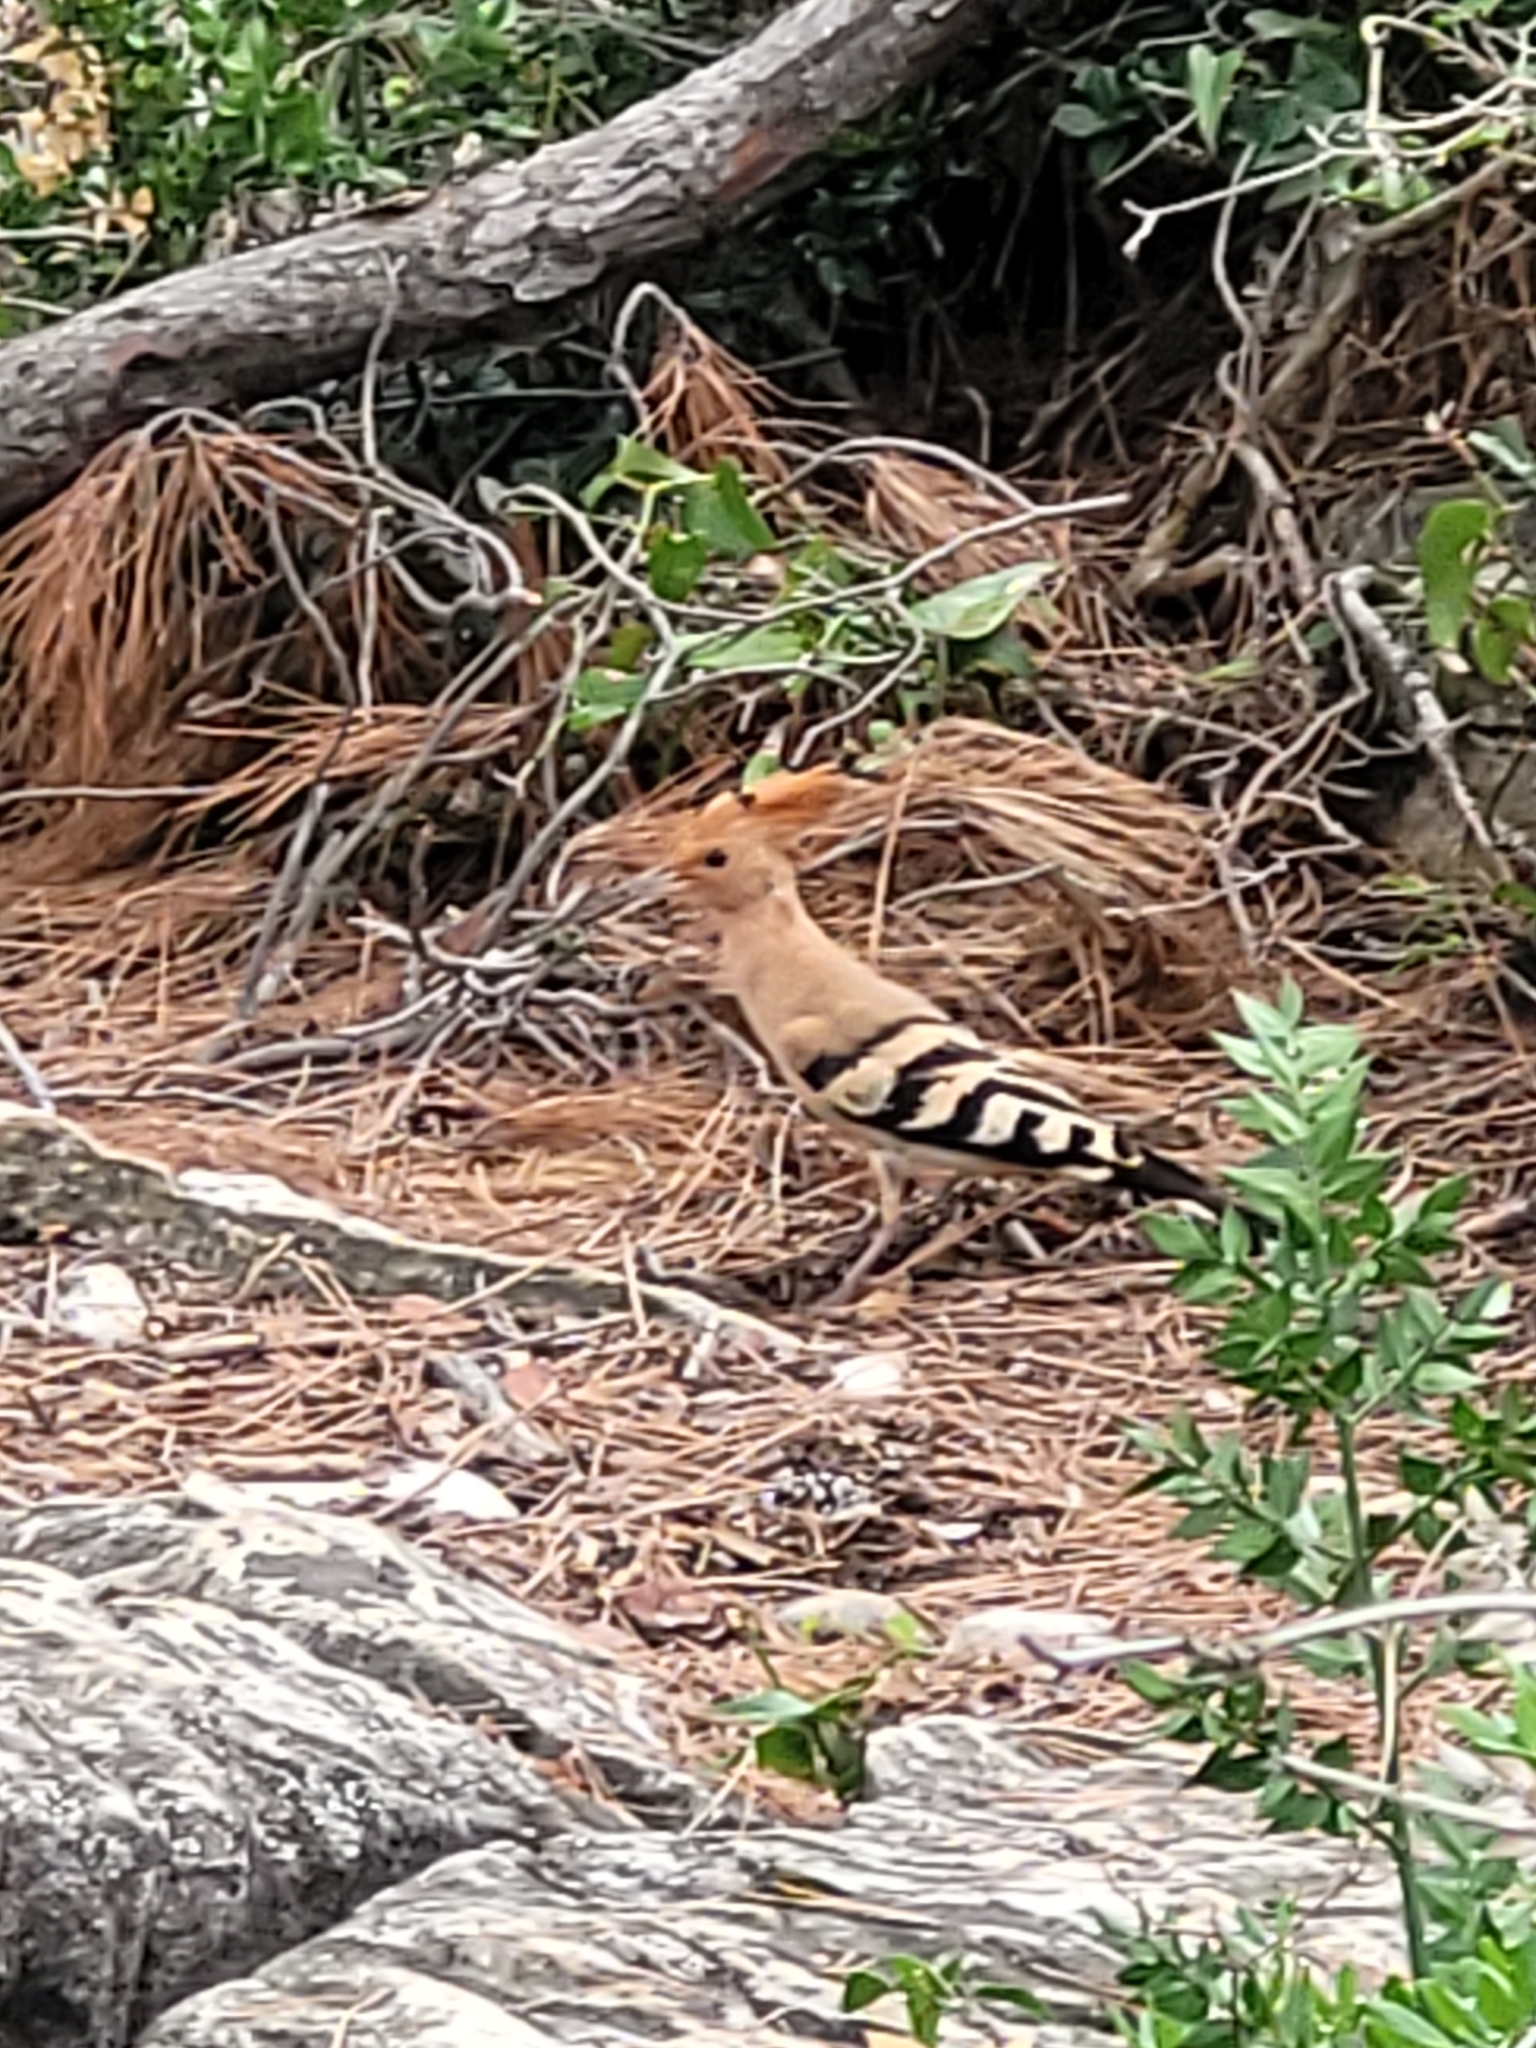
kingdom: Animalia
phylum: Chordata
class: Aves
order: Bucerotiformes
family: Upupidae
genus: Upupa
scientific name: Upupa epops
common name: Eurasian hoopoe
